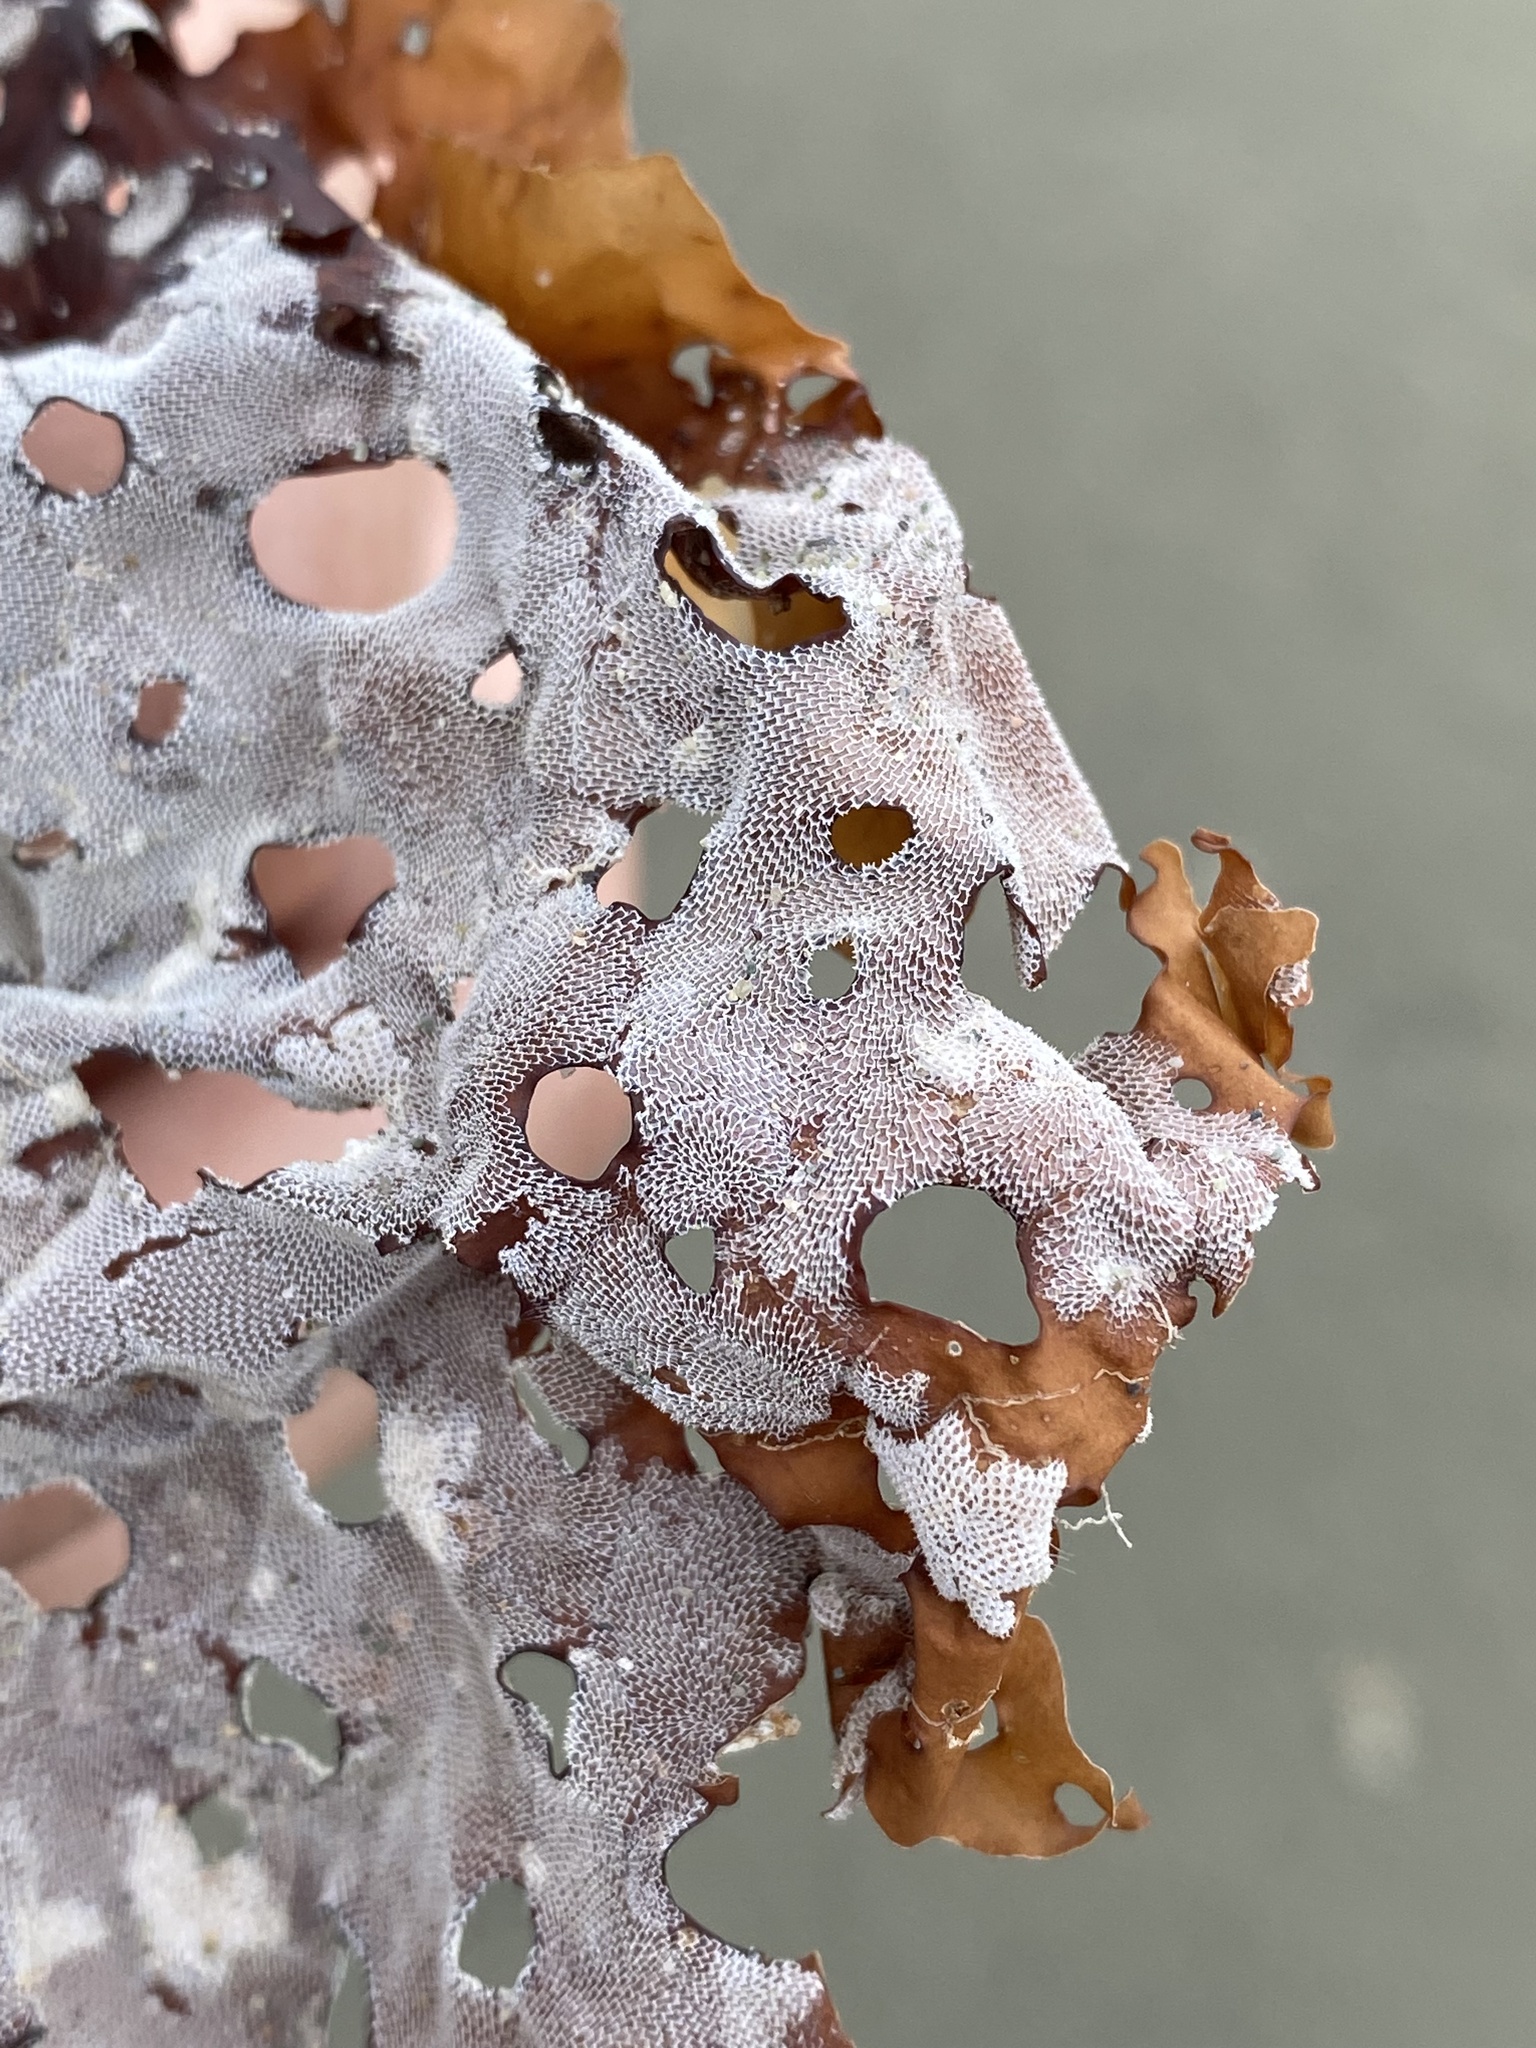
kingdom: Animalia
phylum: Bryozoa
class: Gymnolaemata
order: Cheilostomatida
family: Membraniporidae
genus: Membranipora
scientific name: Membranipora membranacea
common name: Sea mat
